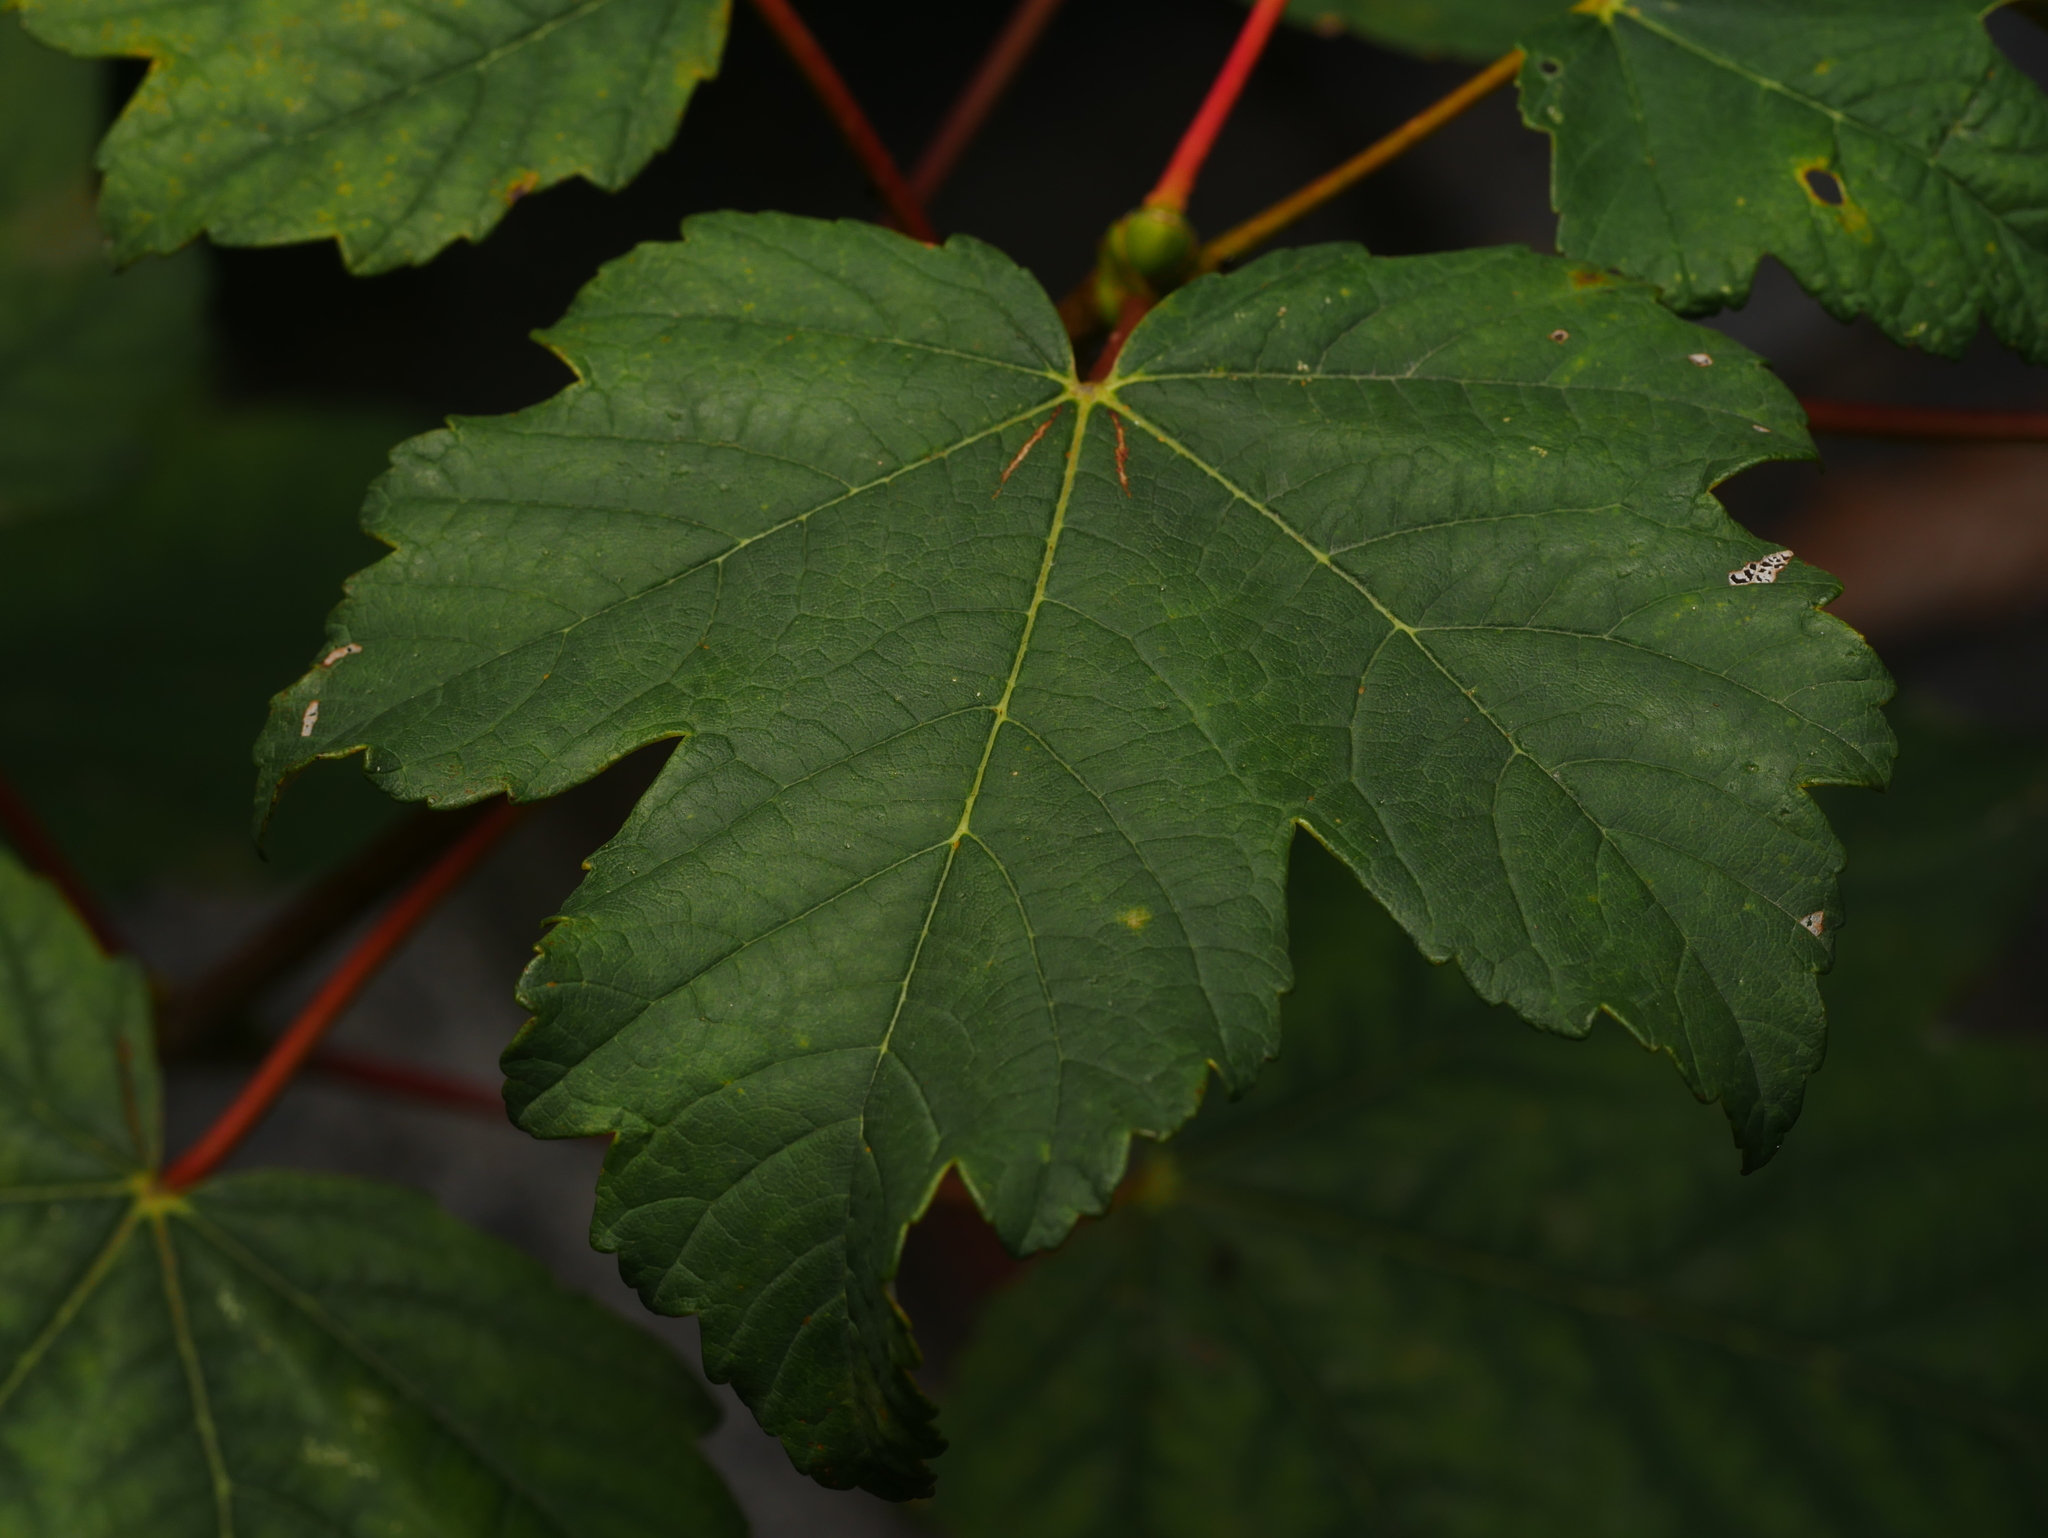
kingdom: Plantae
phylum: Tracheophyta
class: Magnoliopsida
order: Sapindales
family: Sapindaceae
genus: Acer
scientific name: Acer pseudoplatanus
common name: Sycamore
